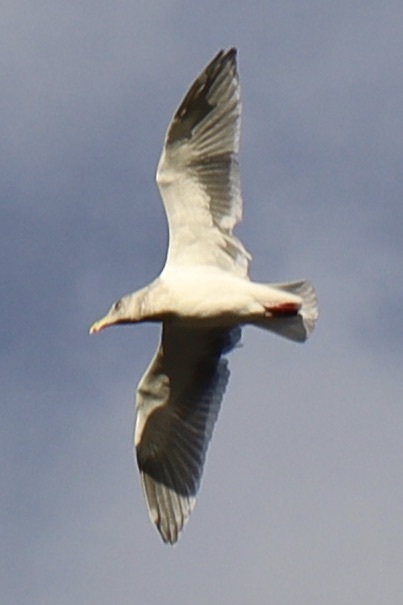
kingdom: Animalia
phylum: Chordata
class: Aves
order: Charadriiformes
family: Laridae
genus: Larus
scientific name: Larus
